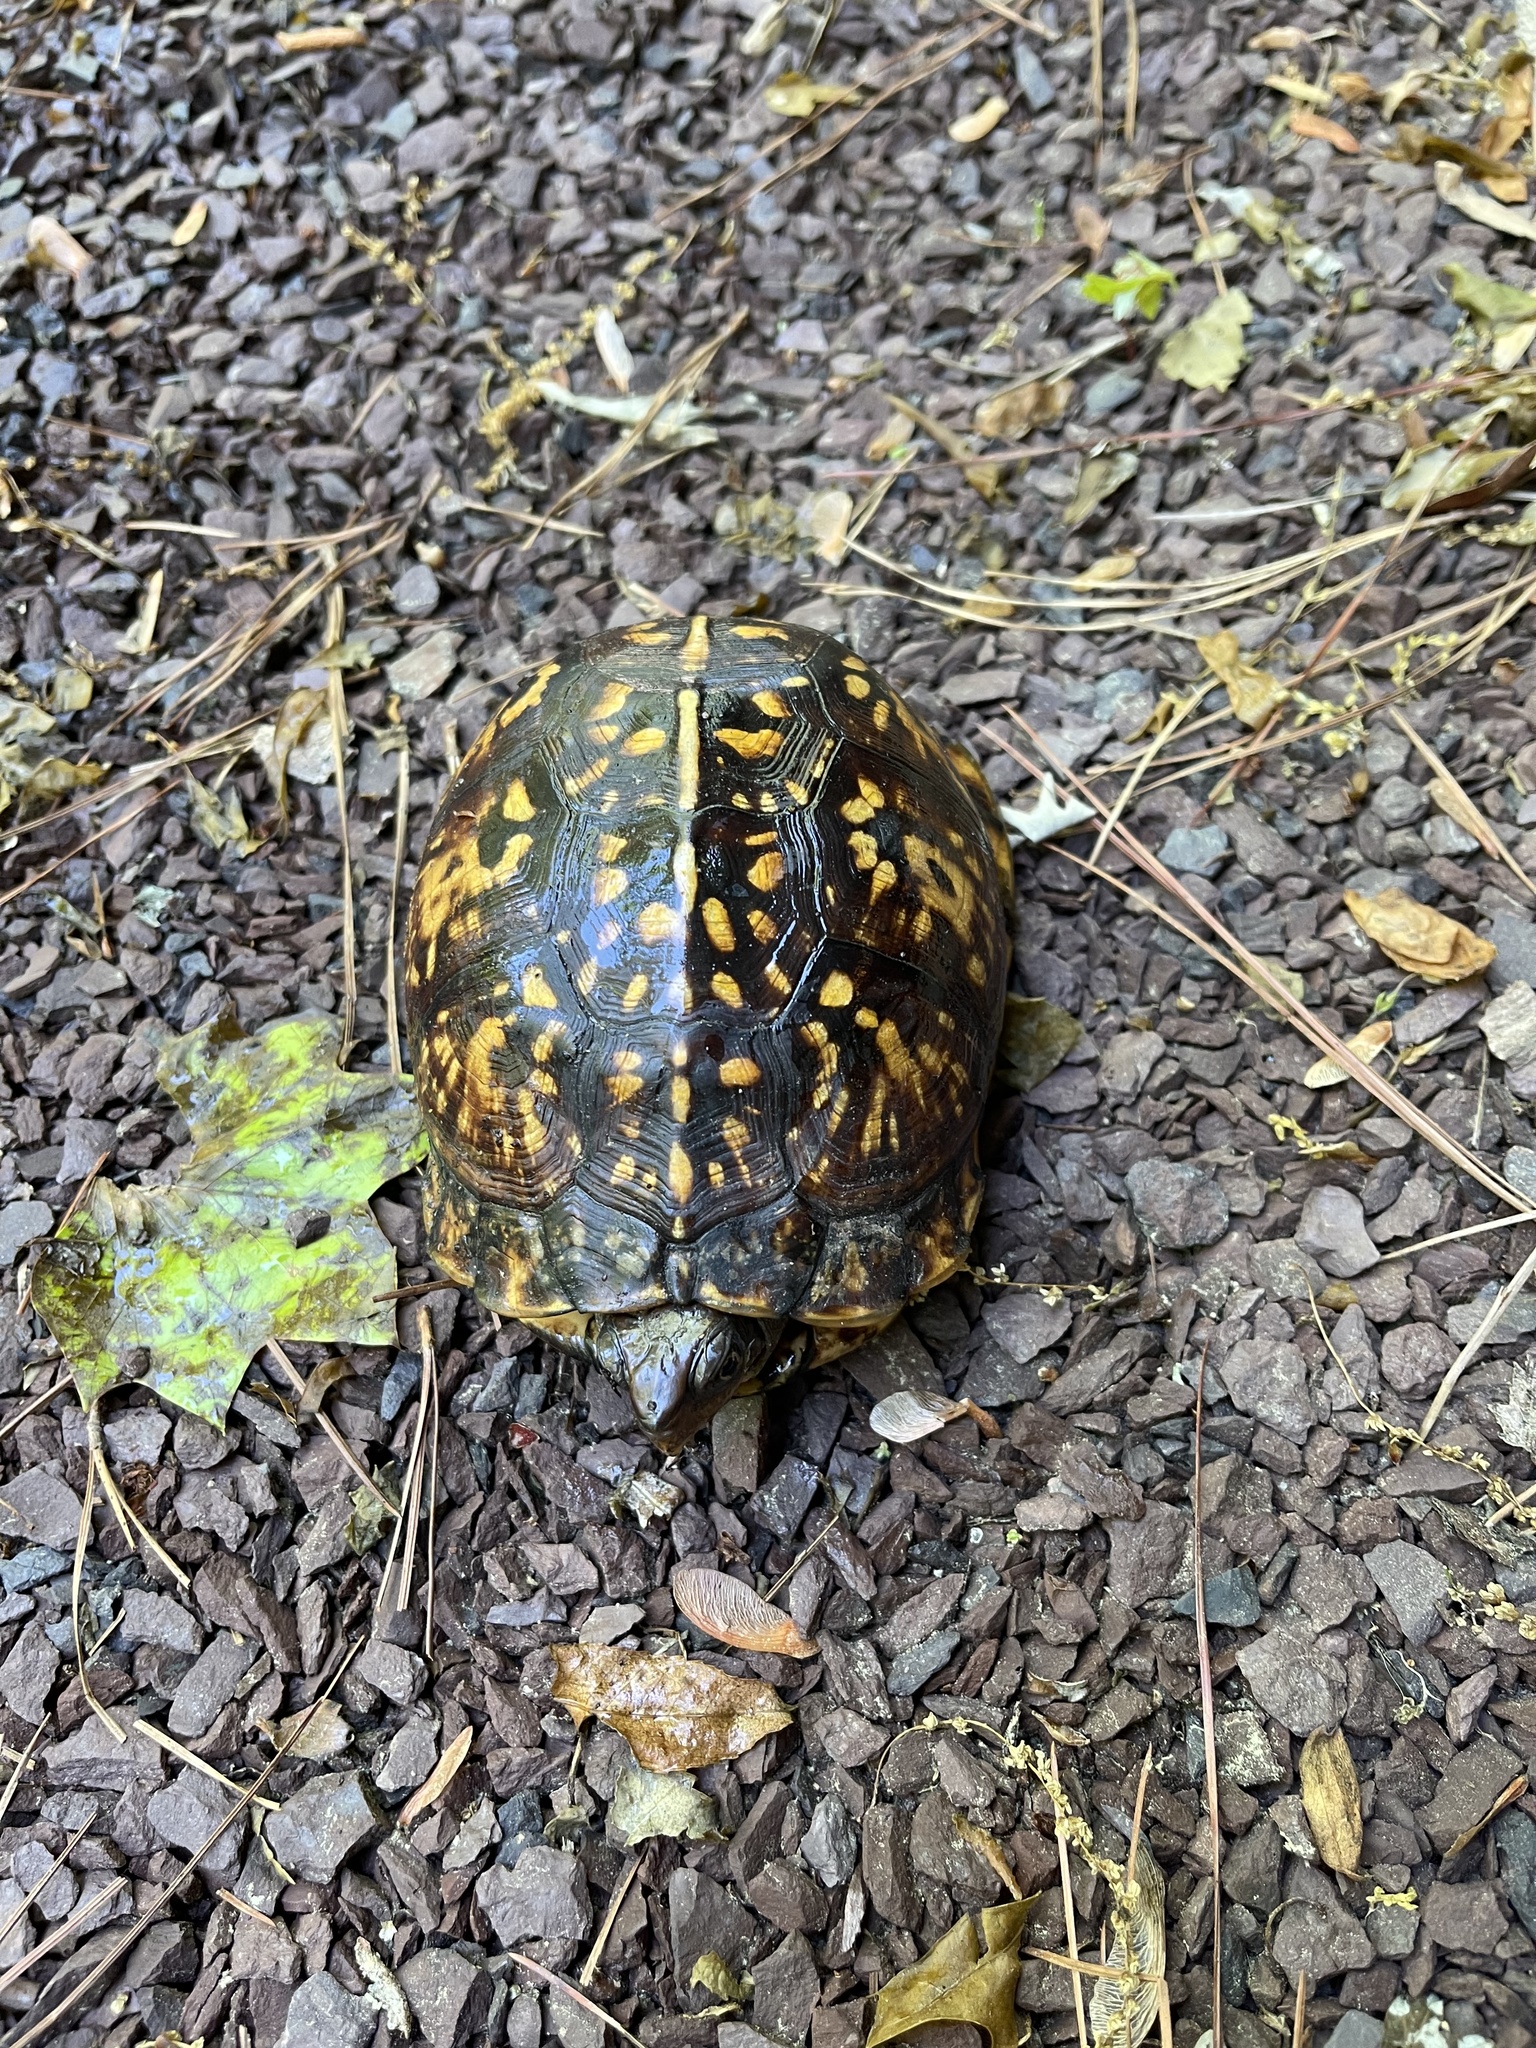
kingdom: Animalia
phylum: Chordata
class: Testudines
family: Emydidae
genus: Terrapene
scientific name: Terrapene carolina
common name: Common box turtle
